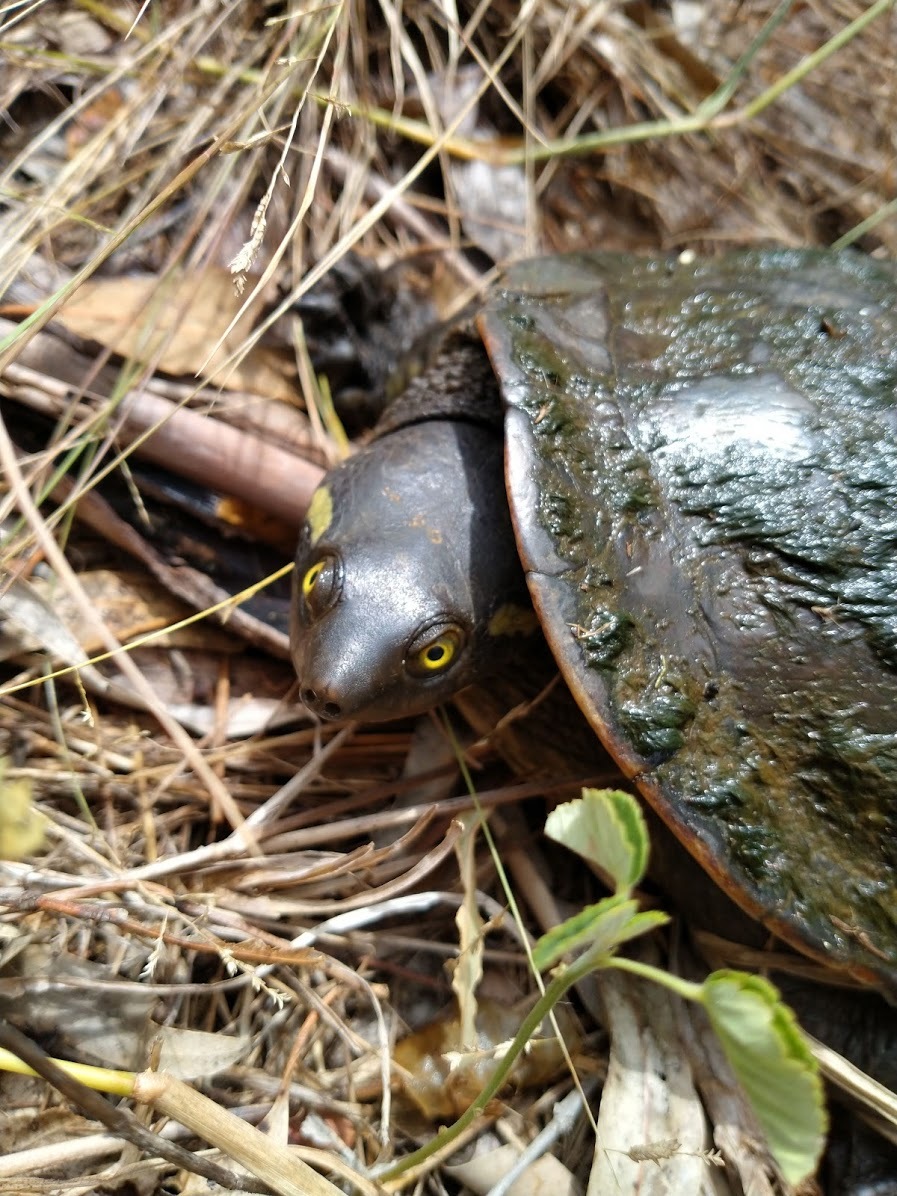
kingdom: Animalia
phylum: Chordata
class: Testudines
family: Chelidae
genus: Emydura
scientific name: Emydura macquarii
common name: Murray river turtle
